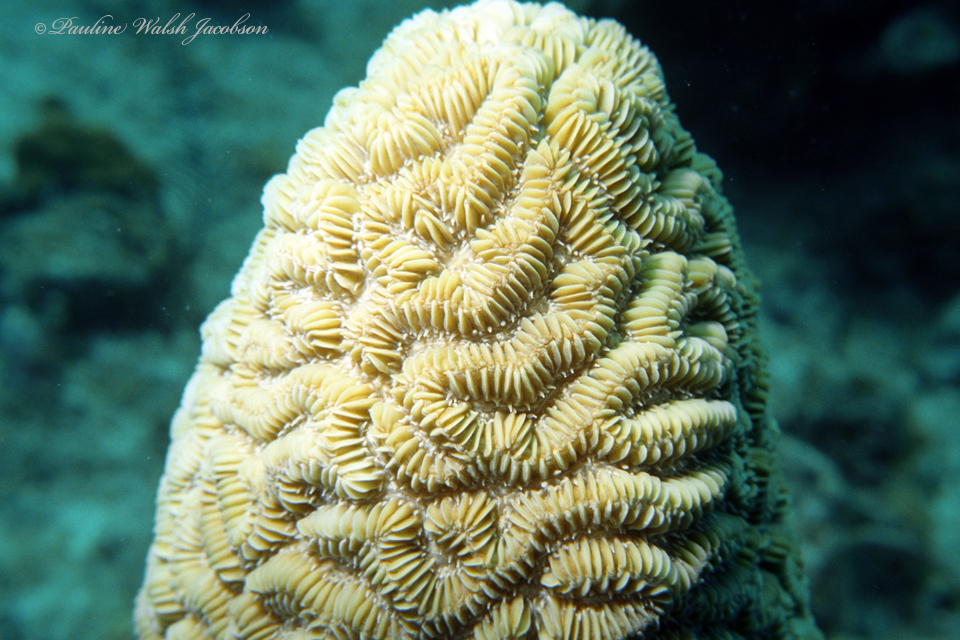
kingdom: Animalia
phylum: Cnidaria
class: Anthozoa
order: Scleractinia
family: Meandrinidae
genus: Meandrina
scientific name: Meandrina meandrites
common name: Maze coral
